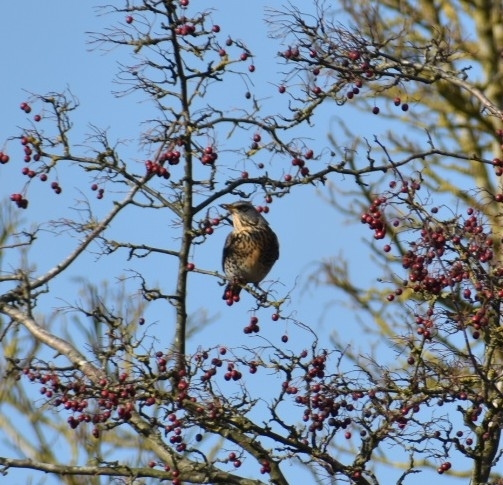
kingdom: Animalia
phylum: Chordata
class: Aves
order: Passeriformes
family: Turdidae
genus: Turdus
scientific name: Turdus pilaris
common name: Fieldfare
